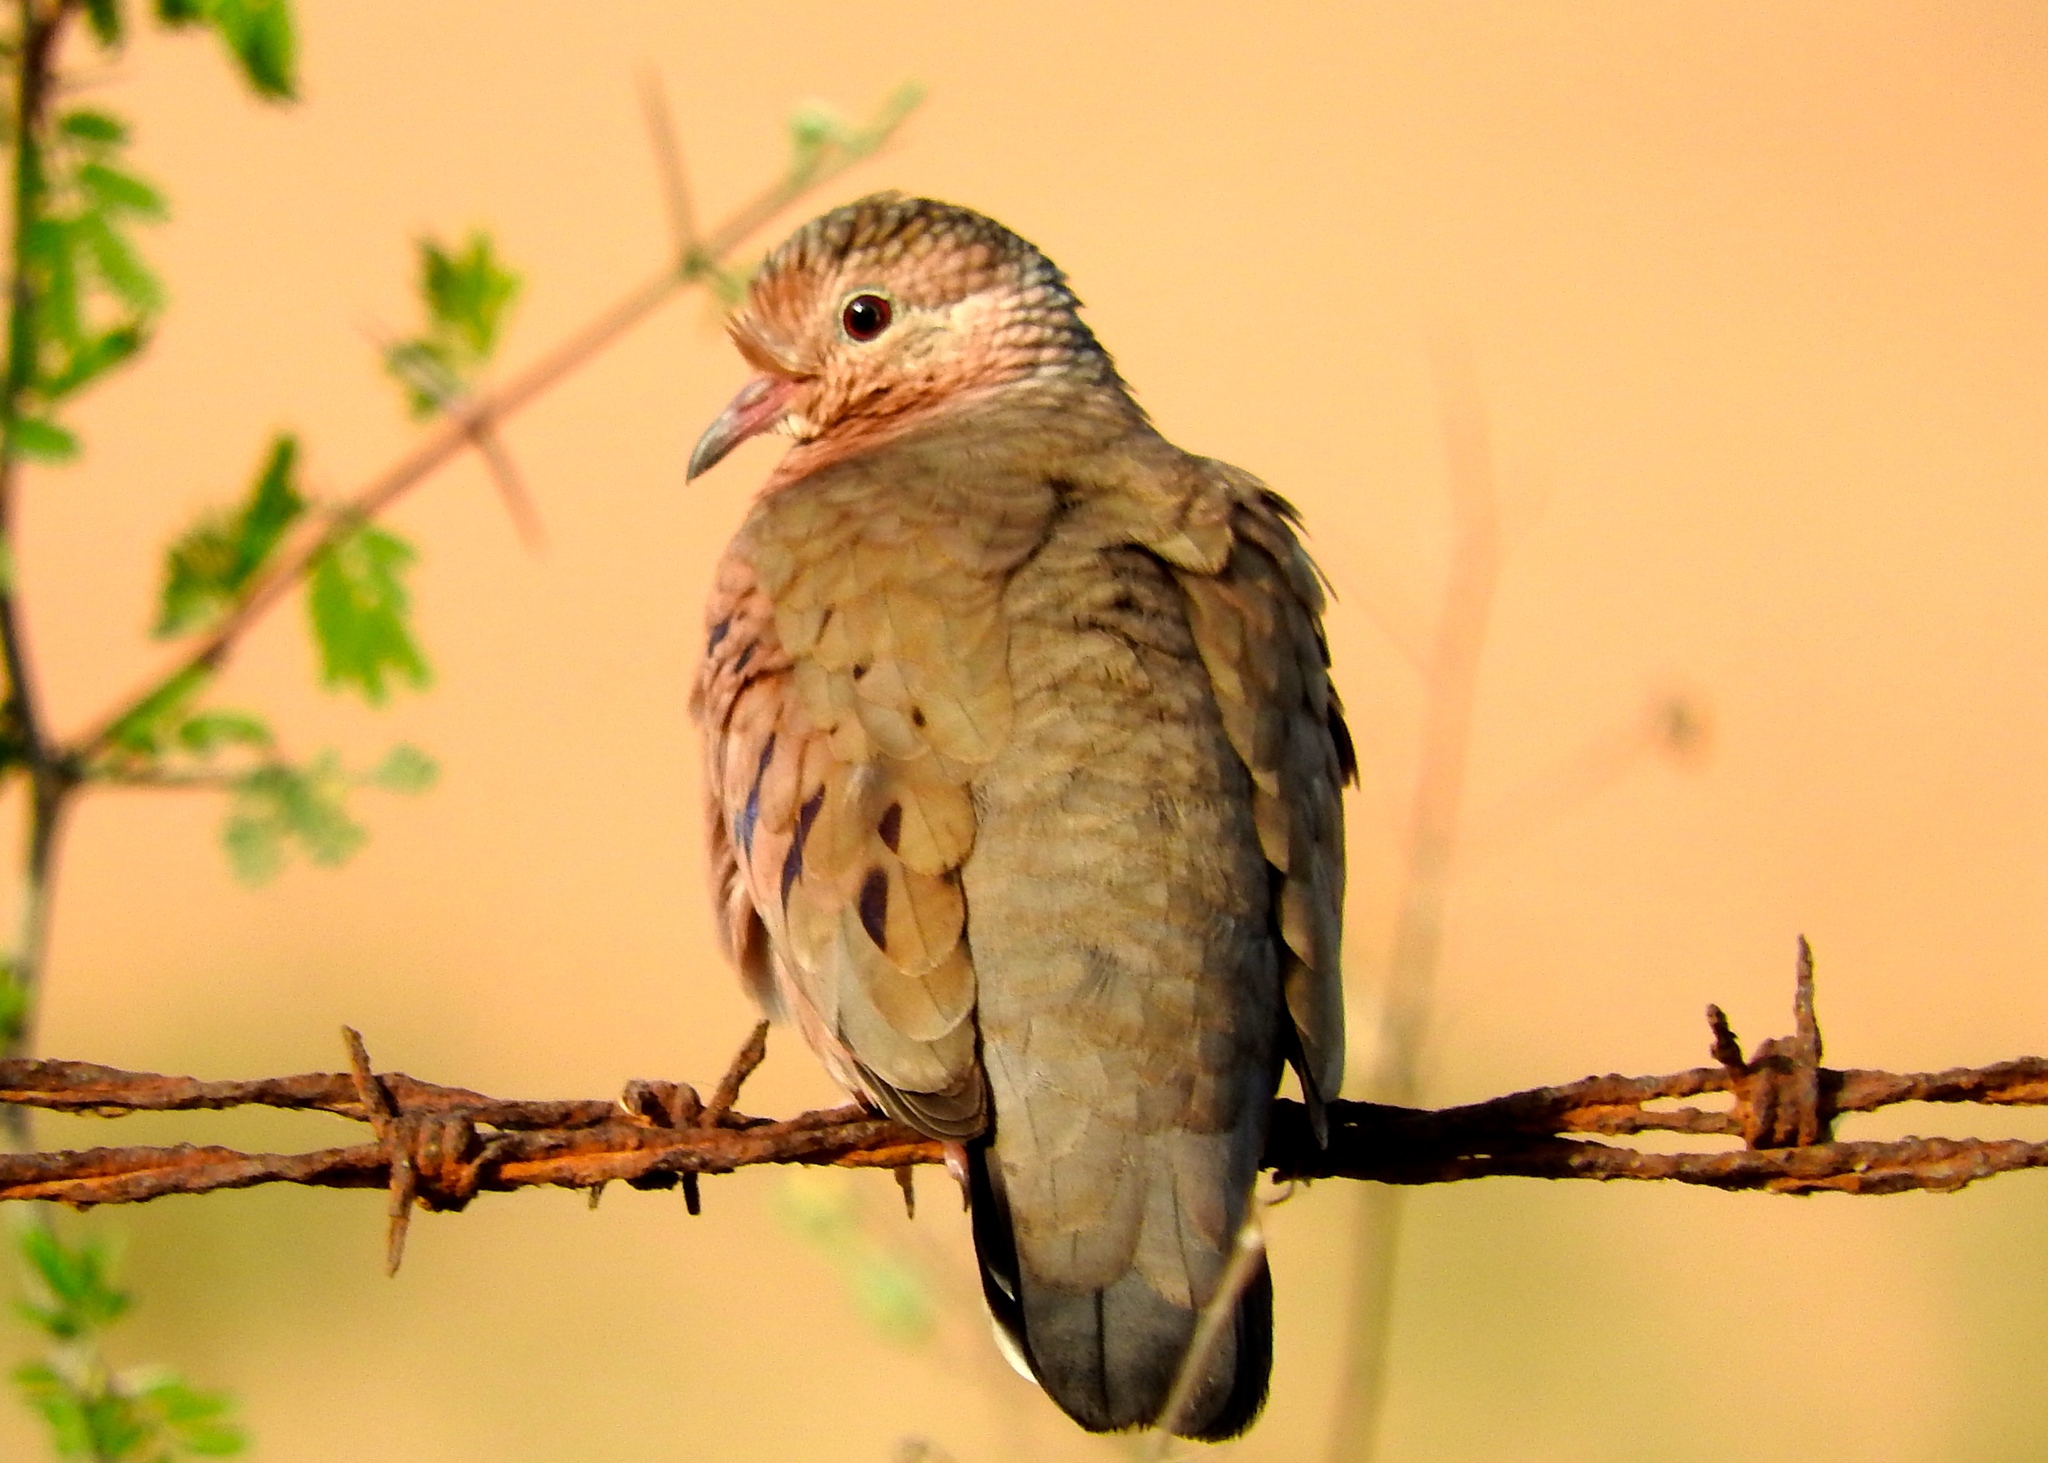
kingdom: Animalia
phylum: Chordata
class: Aves
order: Columbiformes
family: Columbidae
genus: Columbina
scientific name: Columbina passerina
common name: Common ground-dove
